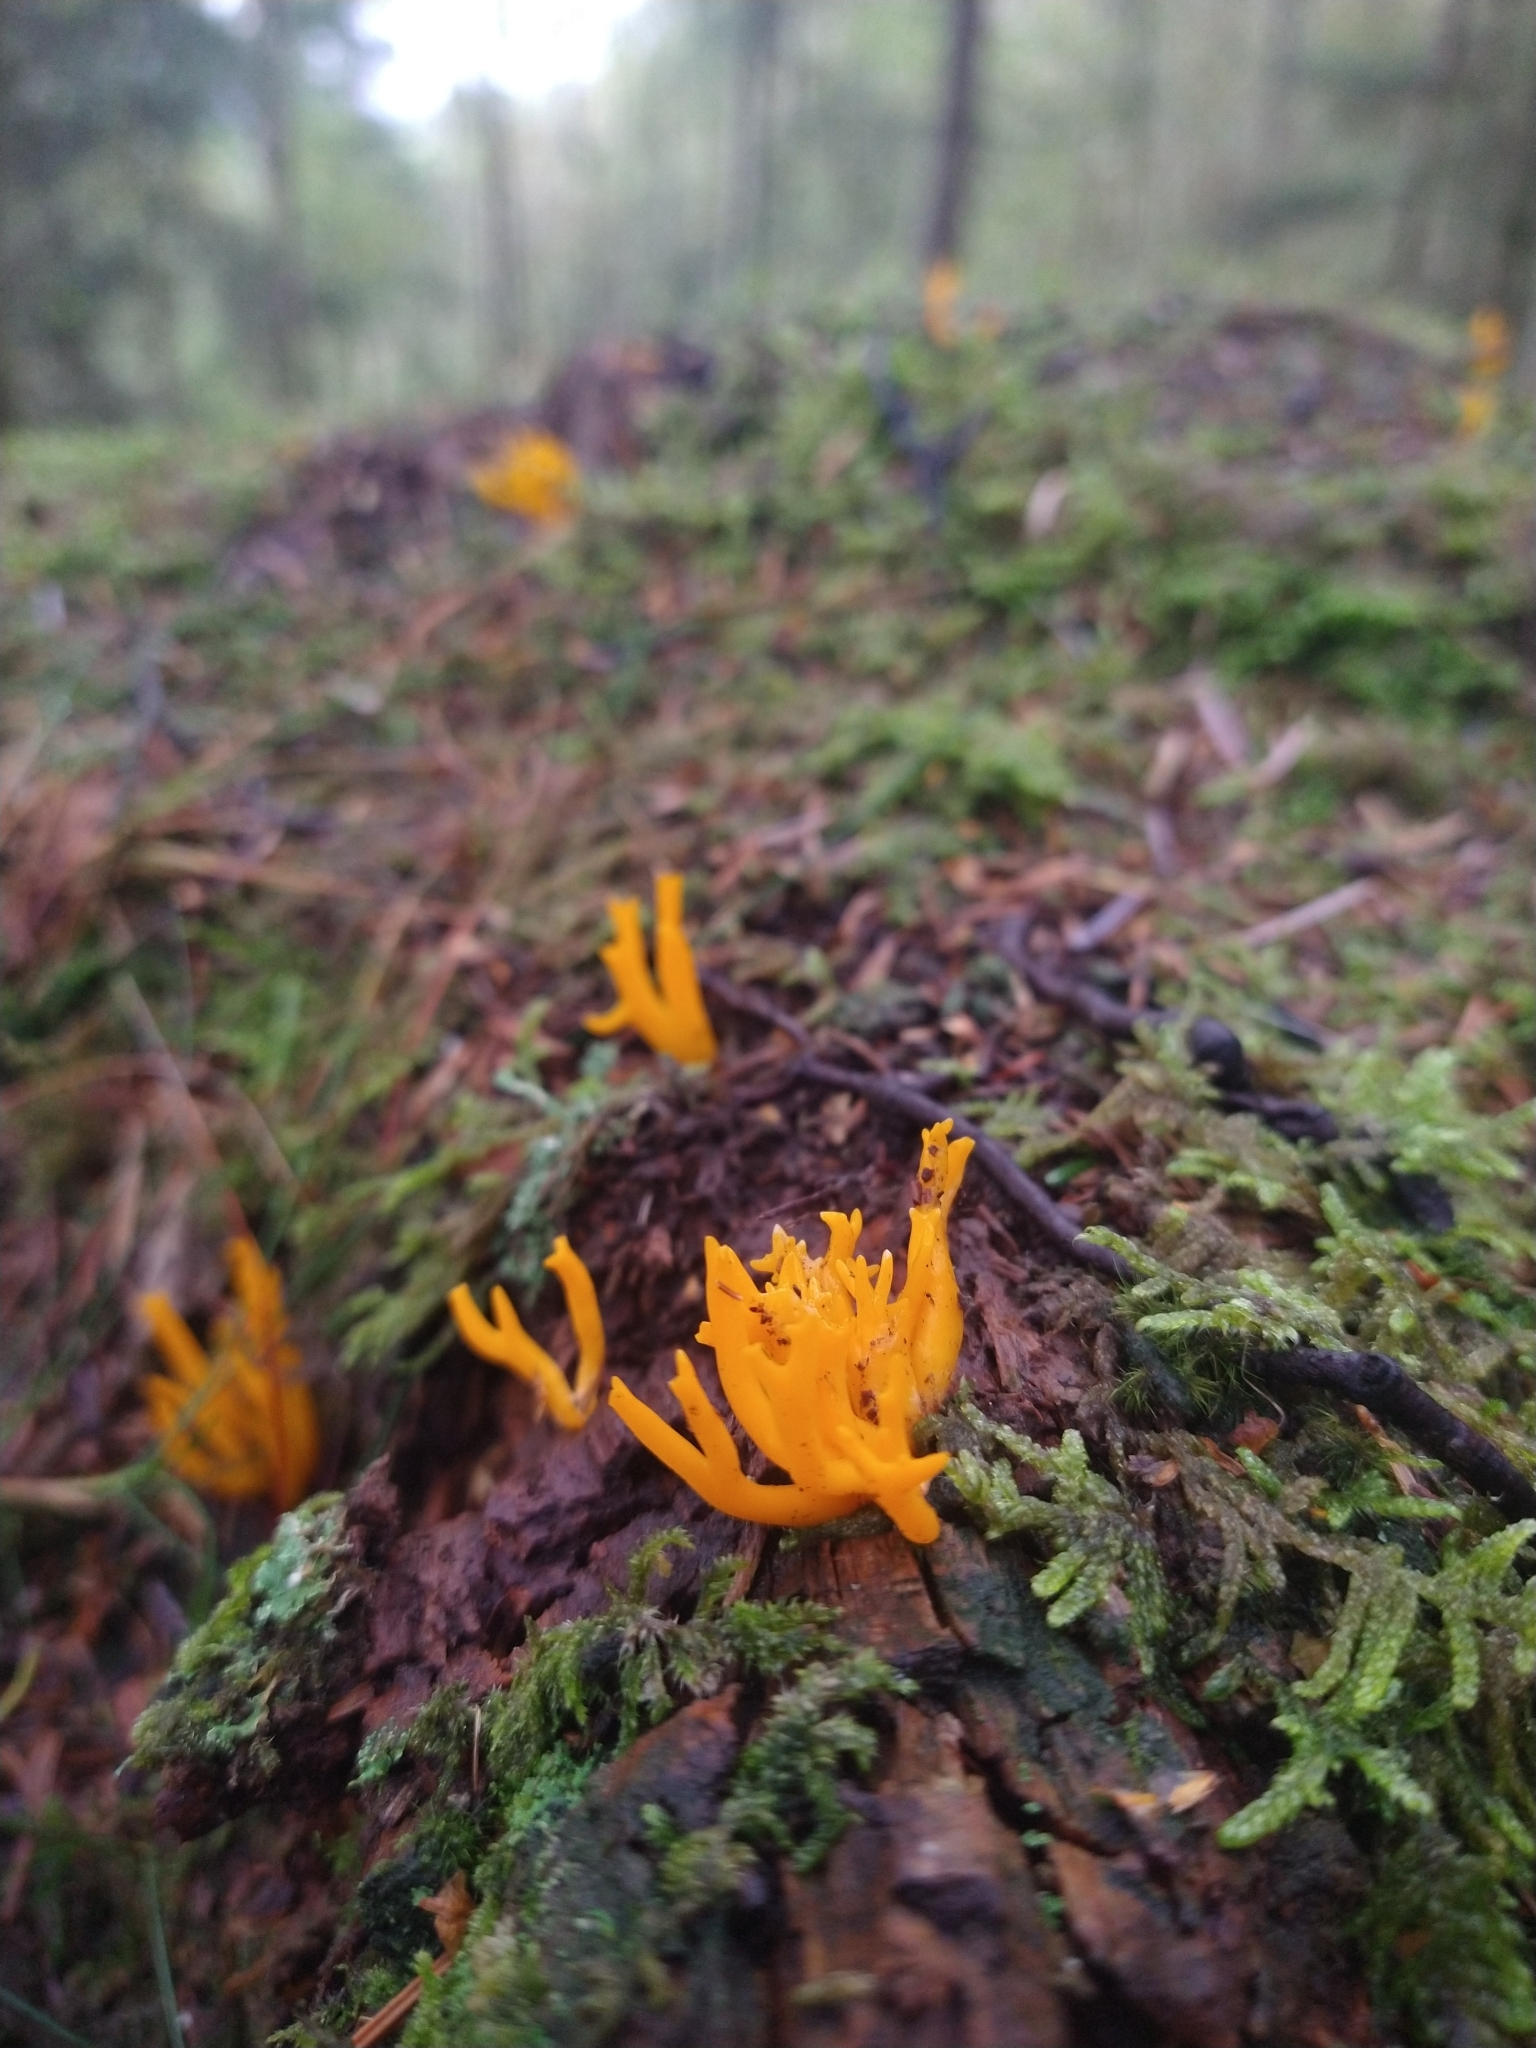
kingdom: Fungi
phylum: Basidiomycota
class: Dacrymycetes
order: Dacrymycetales
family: Dacrymycetaceae
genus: Calocera
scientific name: Calocera viscosa
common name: Yellow stagshorn
